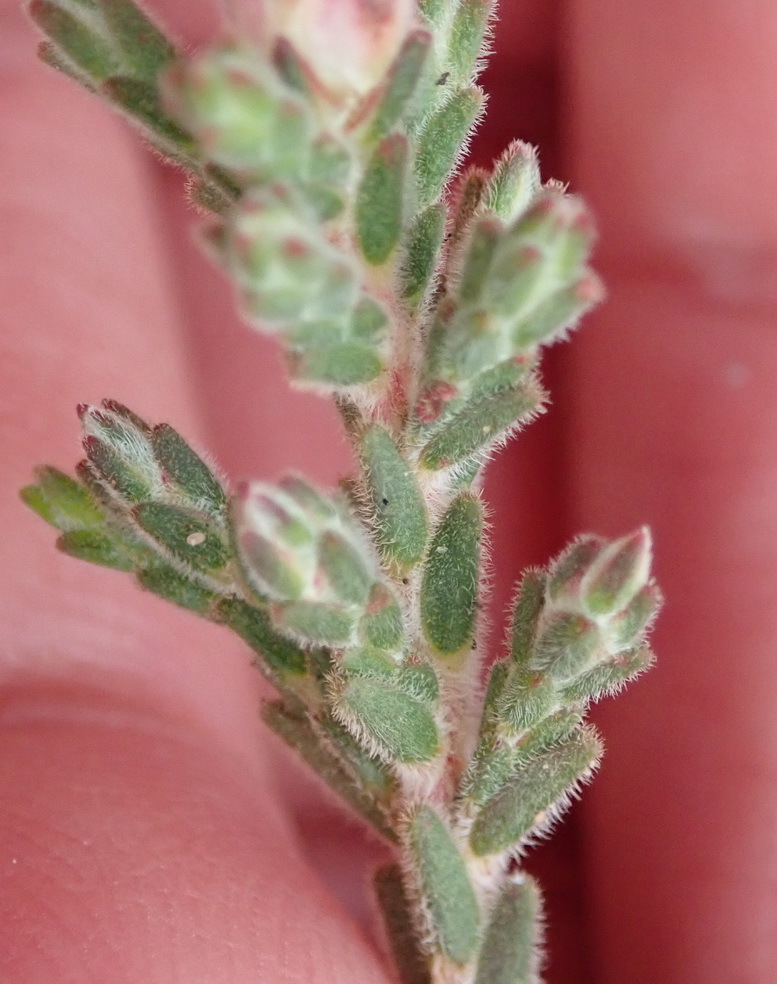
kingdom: Plantae
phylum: Tracheophyta
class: Magnoliopsida
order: Sapindales
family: Rutaceae
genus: Acmadenia
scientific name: Acmadenia laxa
